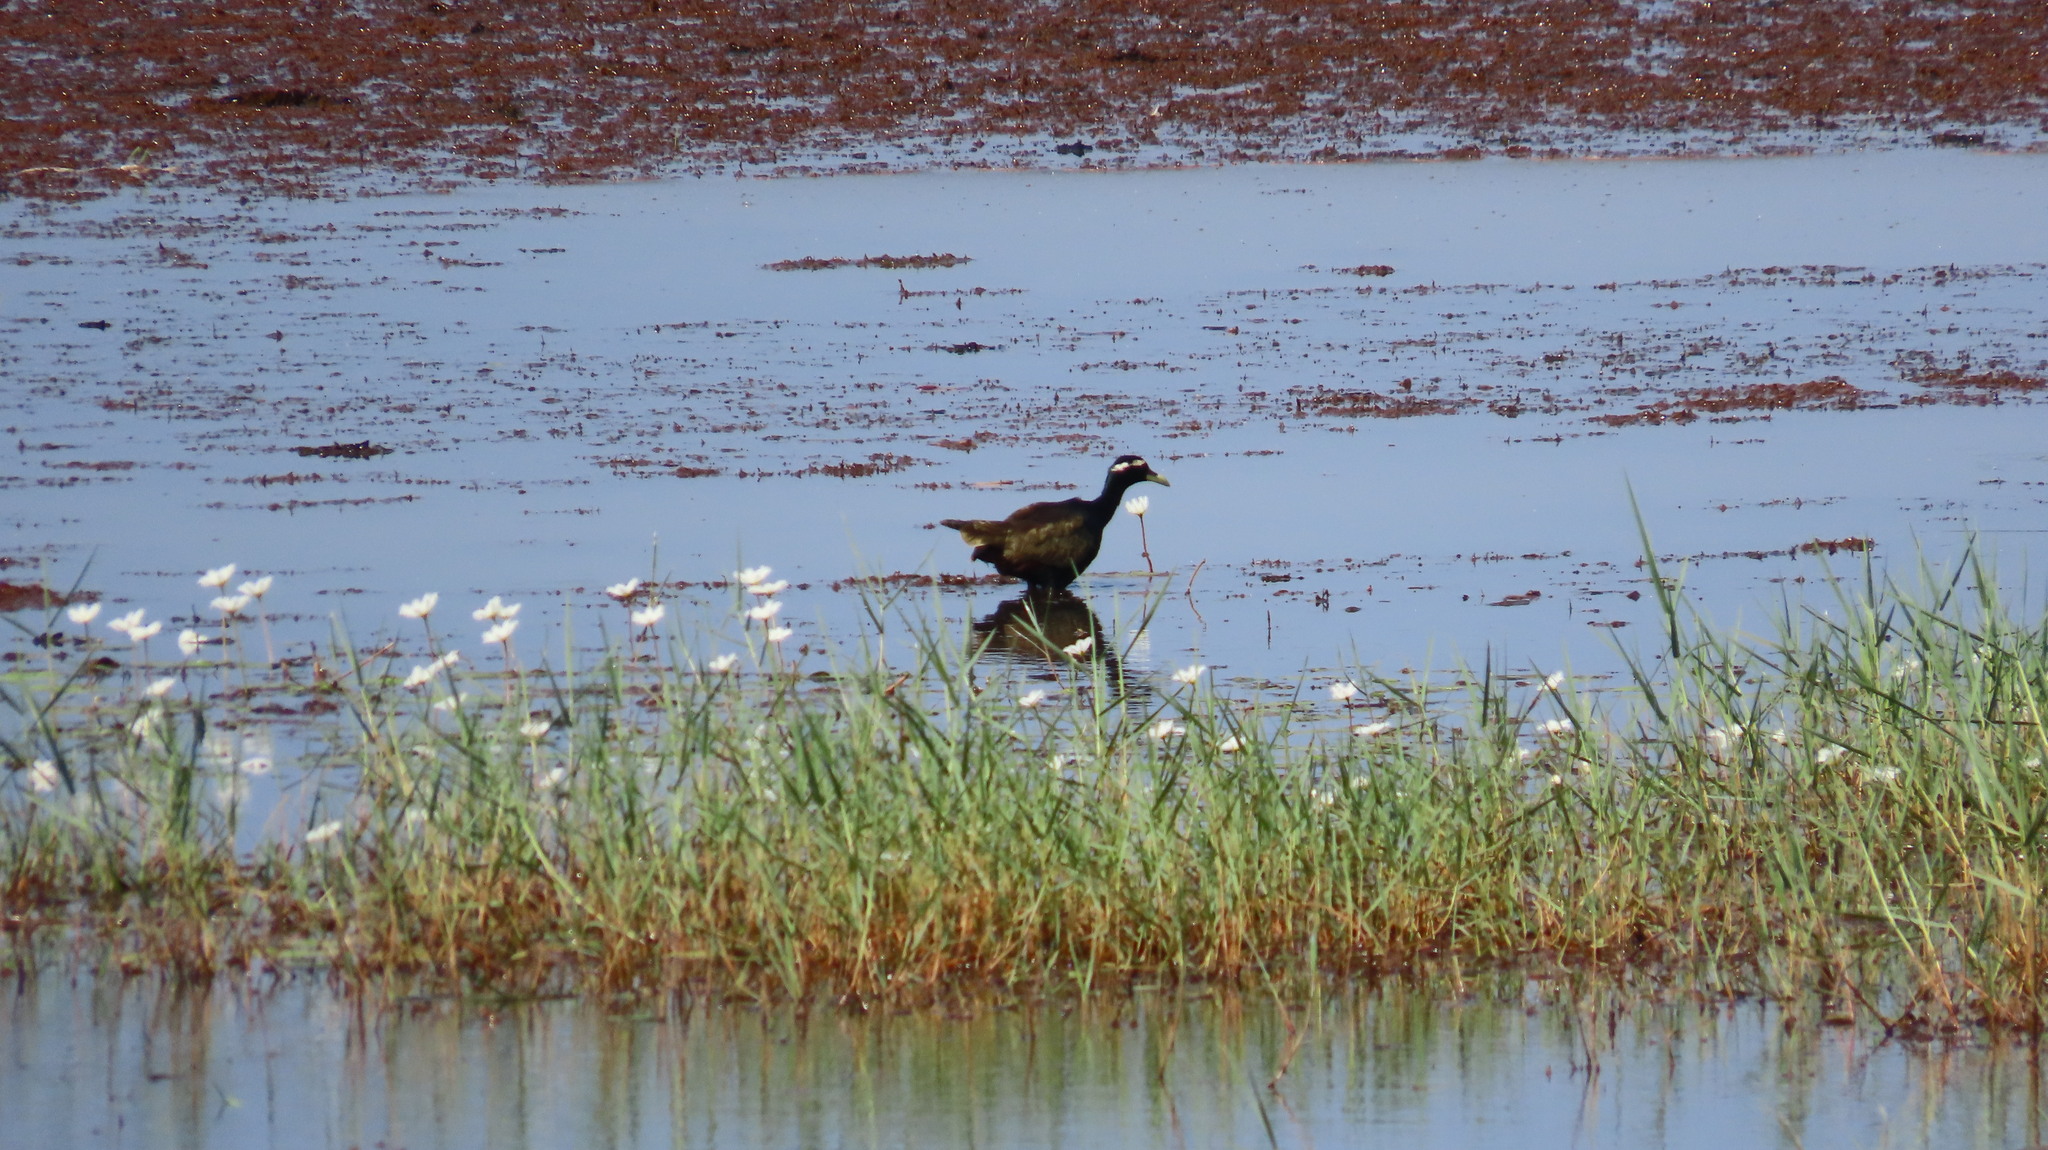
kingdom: Animalia
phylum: Chordata
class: Aves
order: Charadriiformes
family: Jacanidae
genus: Metopidius
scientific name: Metopidius indicus
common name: Bronze-winged jacana
